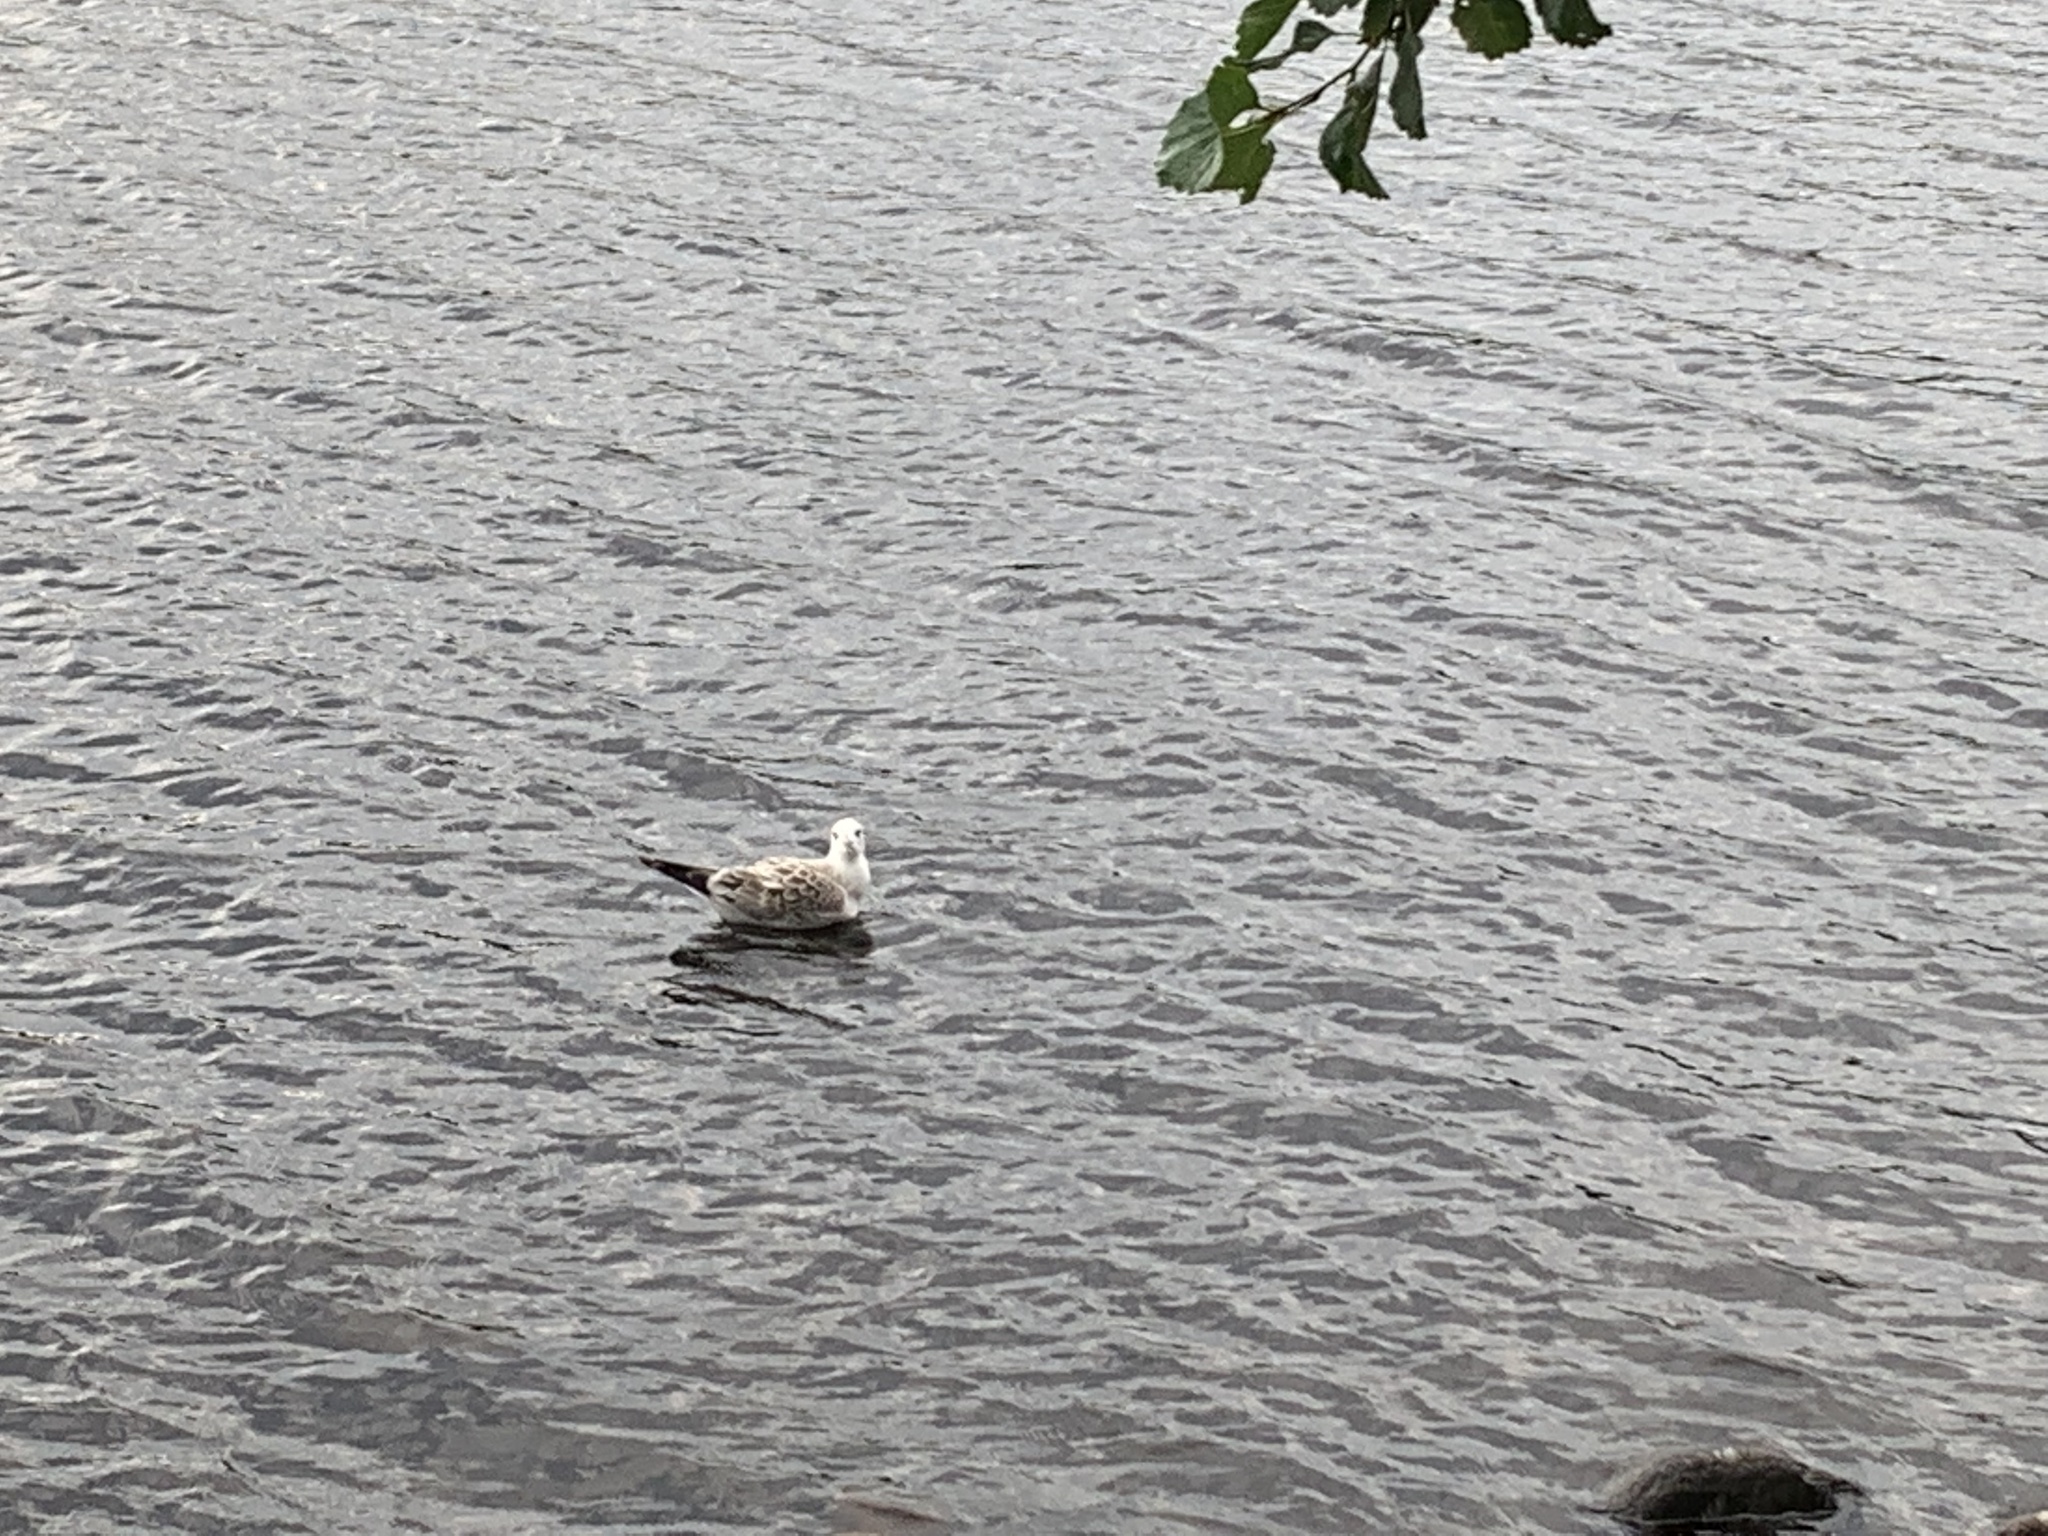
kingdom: Animalia
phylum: Chordata
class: Aves
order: Charadriiformes
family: Laridae
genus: Larus
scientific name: Larus canus
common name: Mew gull
